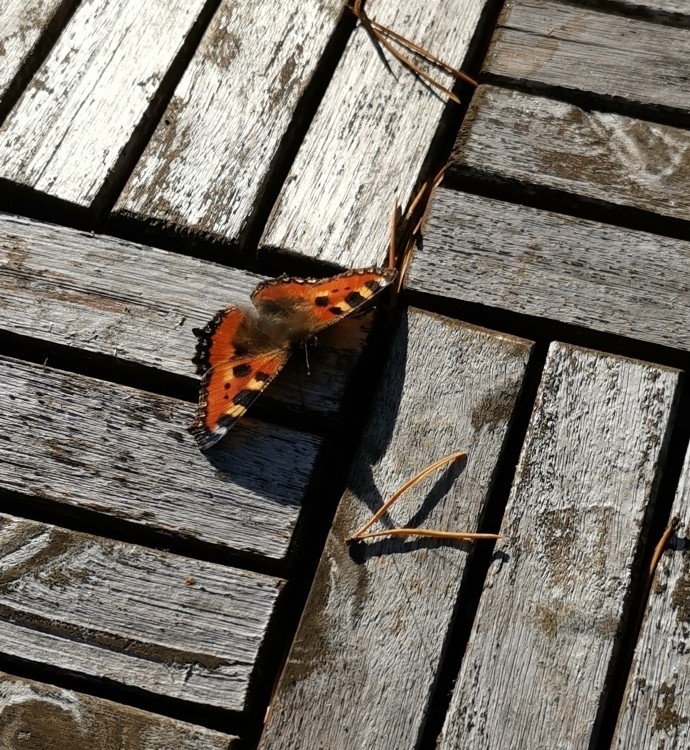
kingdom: Animalia
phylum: Arthropoda
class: Insecta
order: Lepidoptera
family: Nymphalidae
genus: Aglais
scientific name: Aglais urticae
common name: Small tortoiseshell
